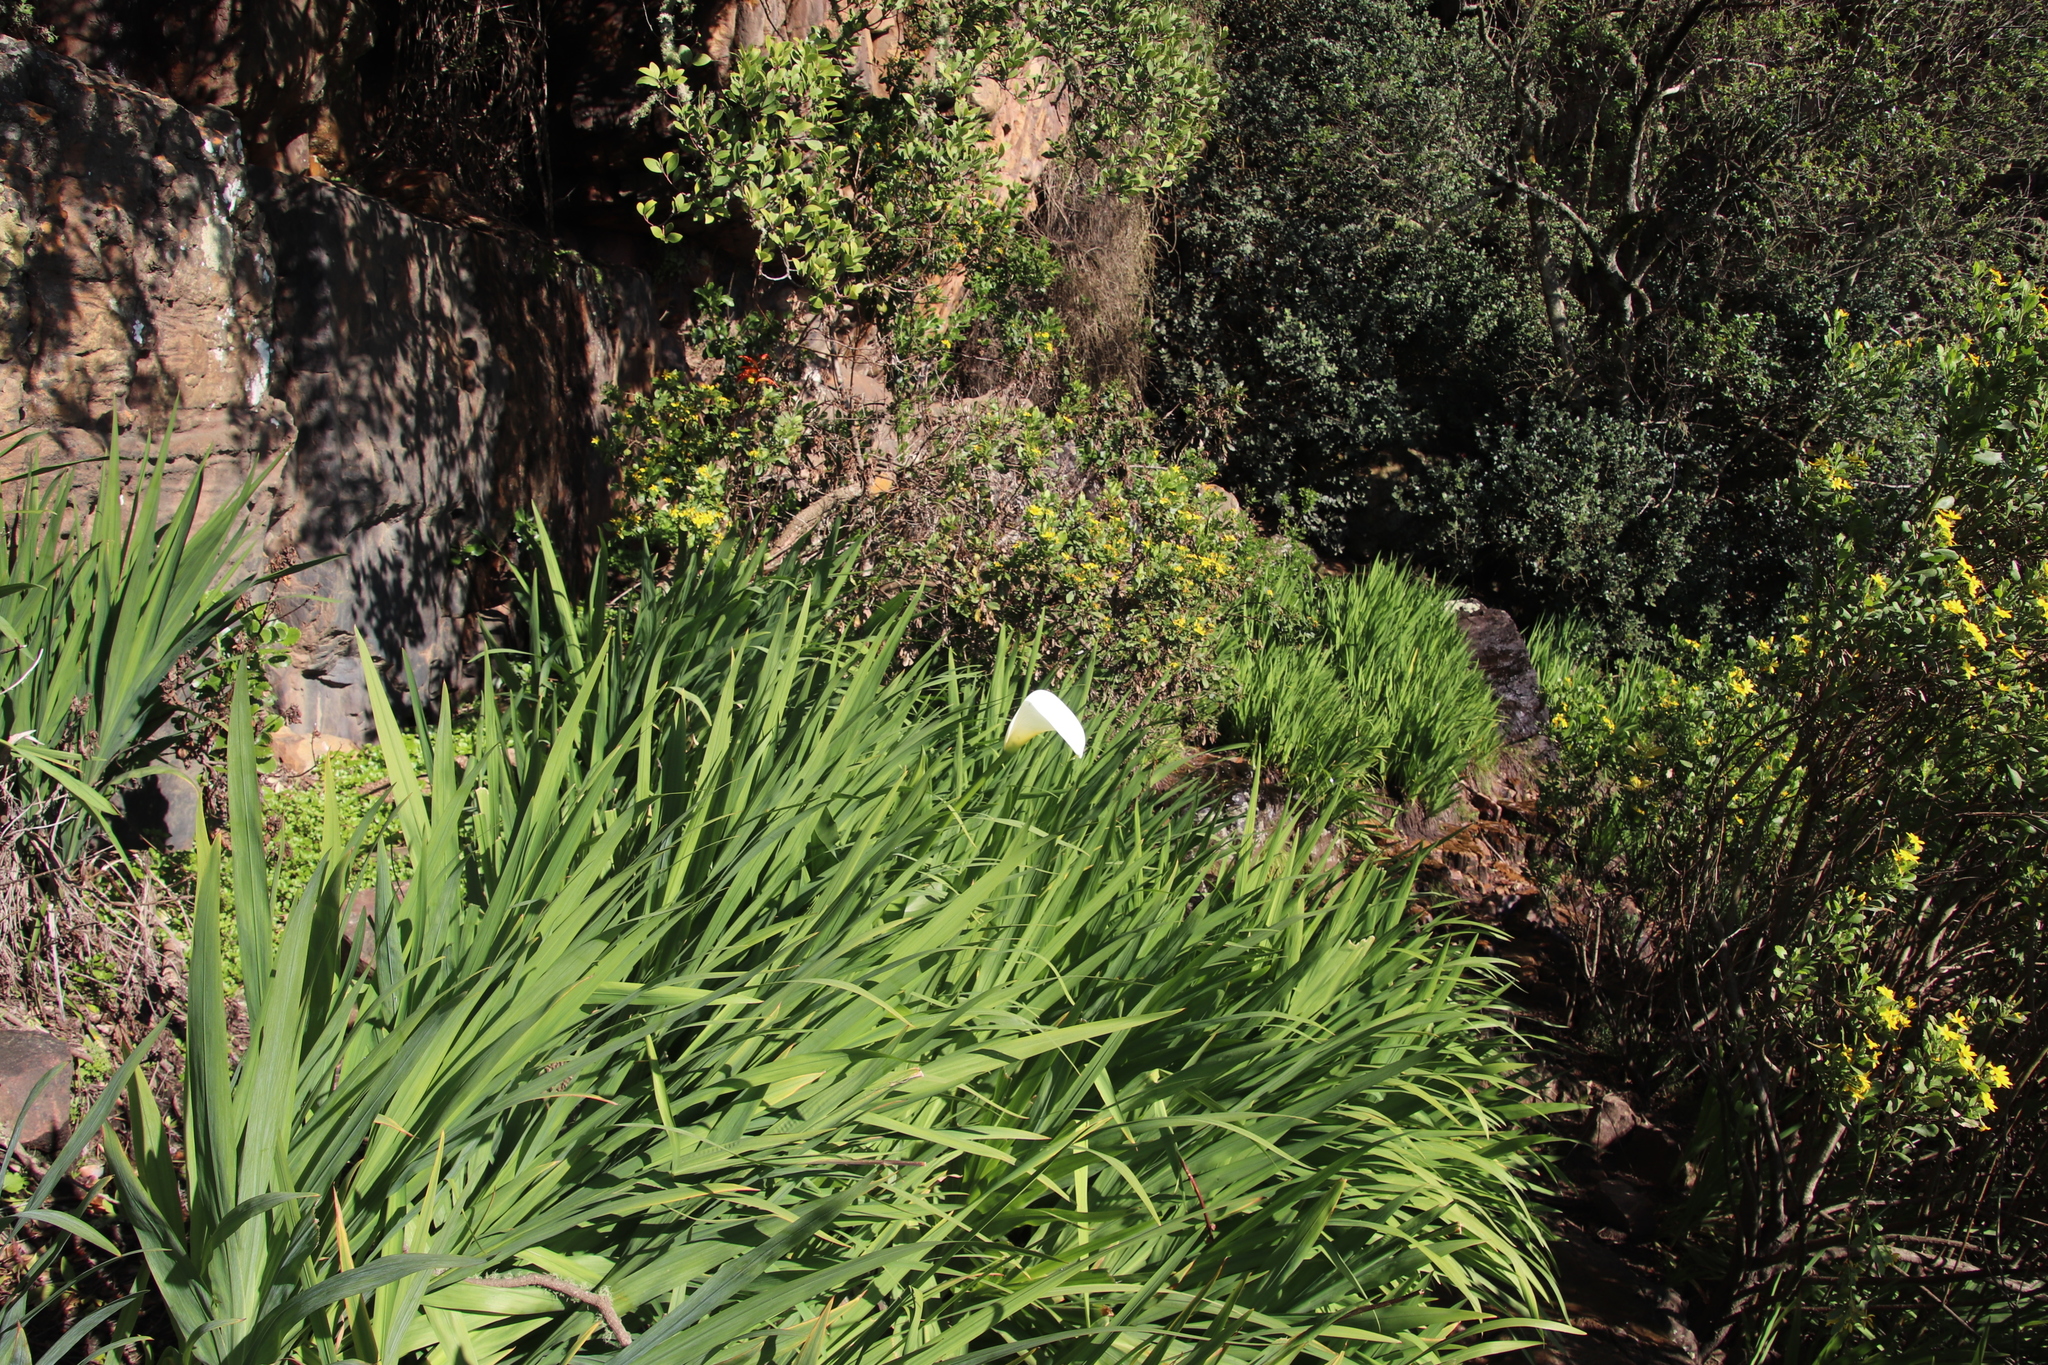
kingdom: Plantae
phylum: Tracheophyta
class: Liliopsida
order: Alismatales
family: Araceae
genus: Zantedeschia
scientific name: Zantedeschia aethiopica
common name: Altar-lily
